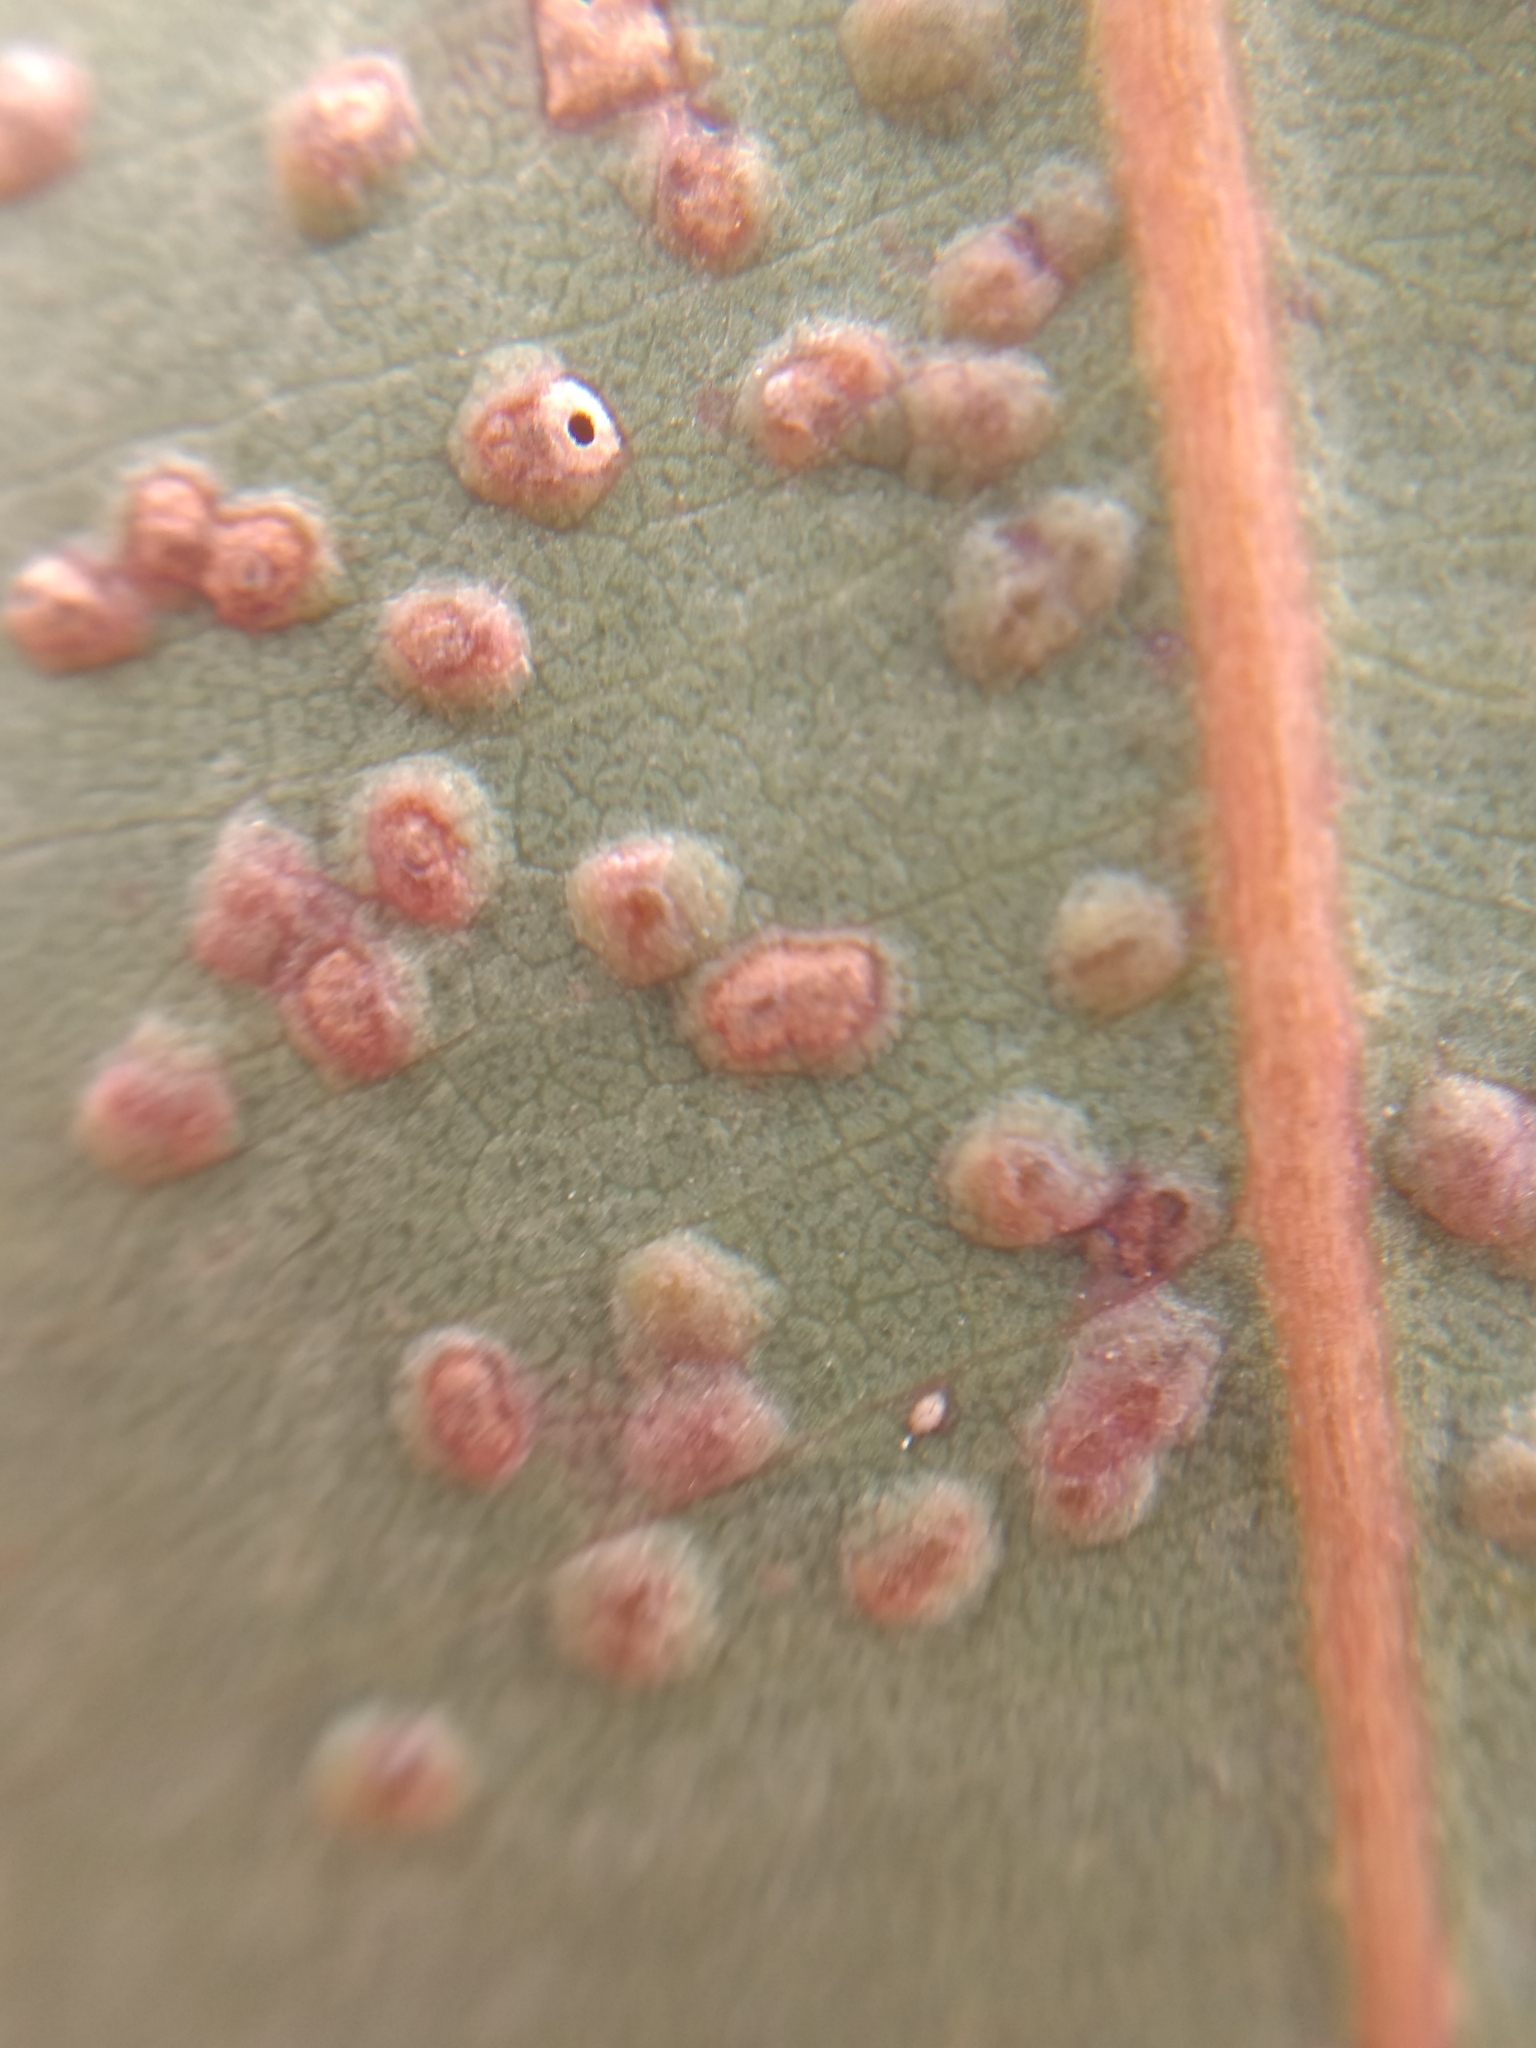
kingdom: Animalia
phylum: Arthropoda
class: Insecta
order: Hymenoptera
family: Eulophidae
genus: Ophelimus
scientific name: Ophelimus maskelli
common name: Gall wasp
